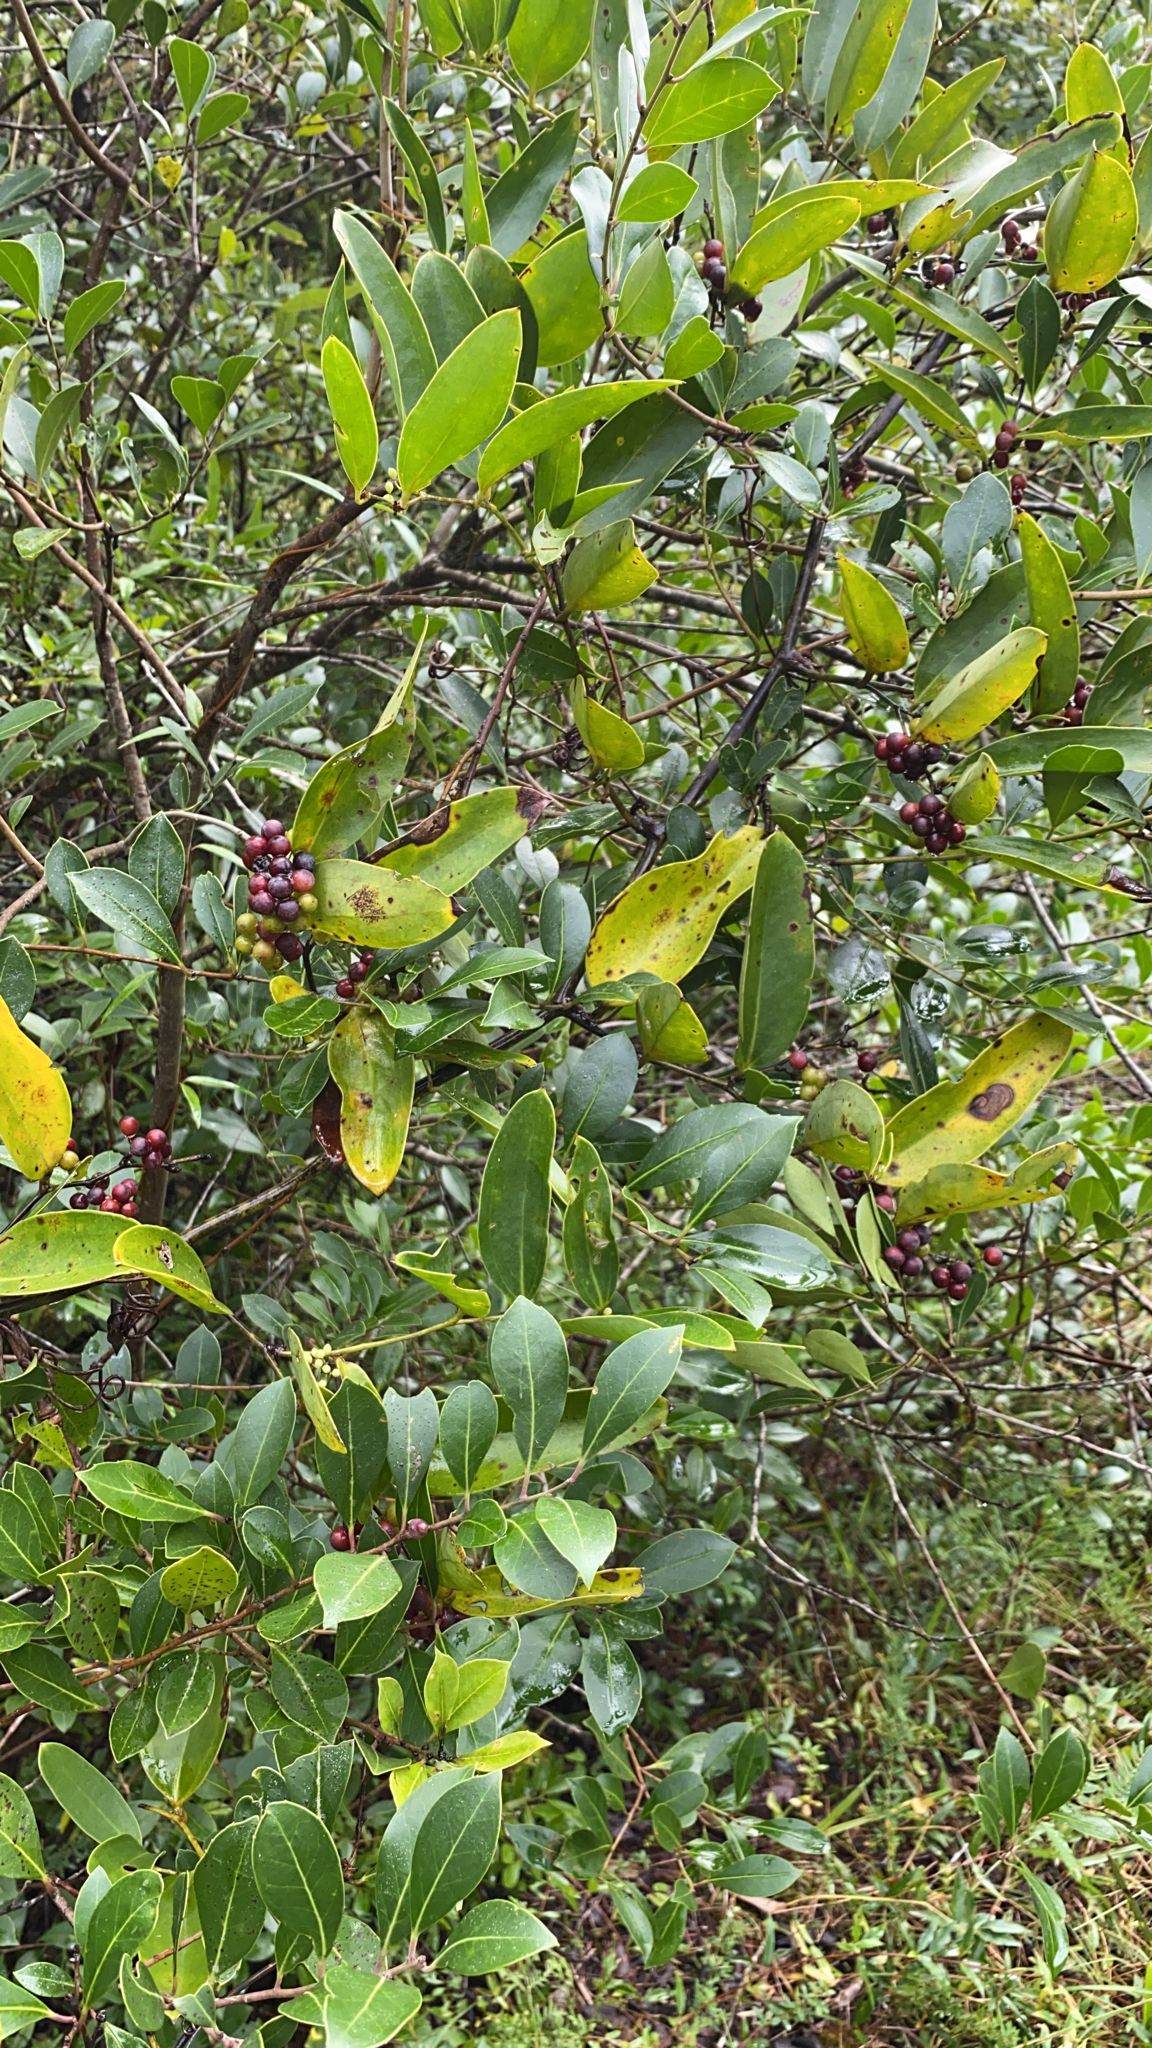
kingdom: Plantae
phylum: Tracheophyta
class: Liliopsida
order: Liliales
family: Smilacaceae
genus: Smilax
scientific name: Smilax laurifolia
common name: Bamboovine
